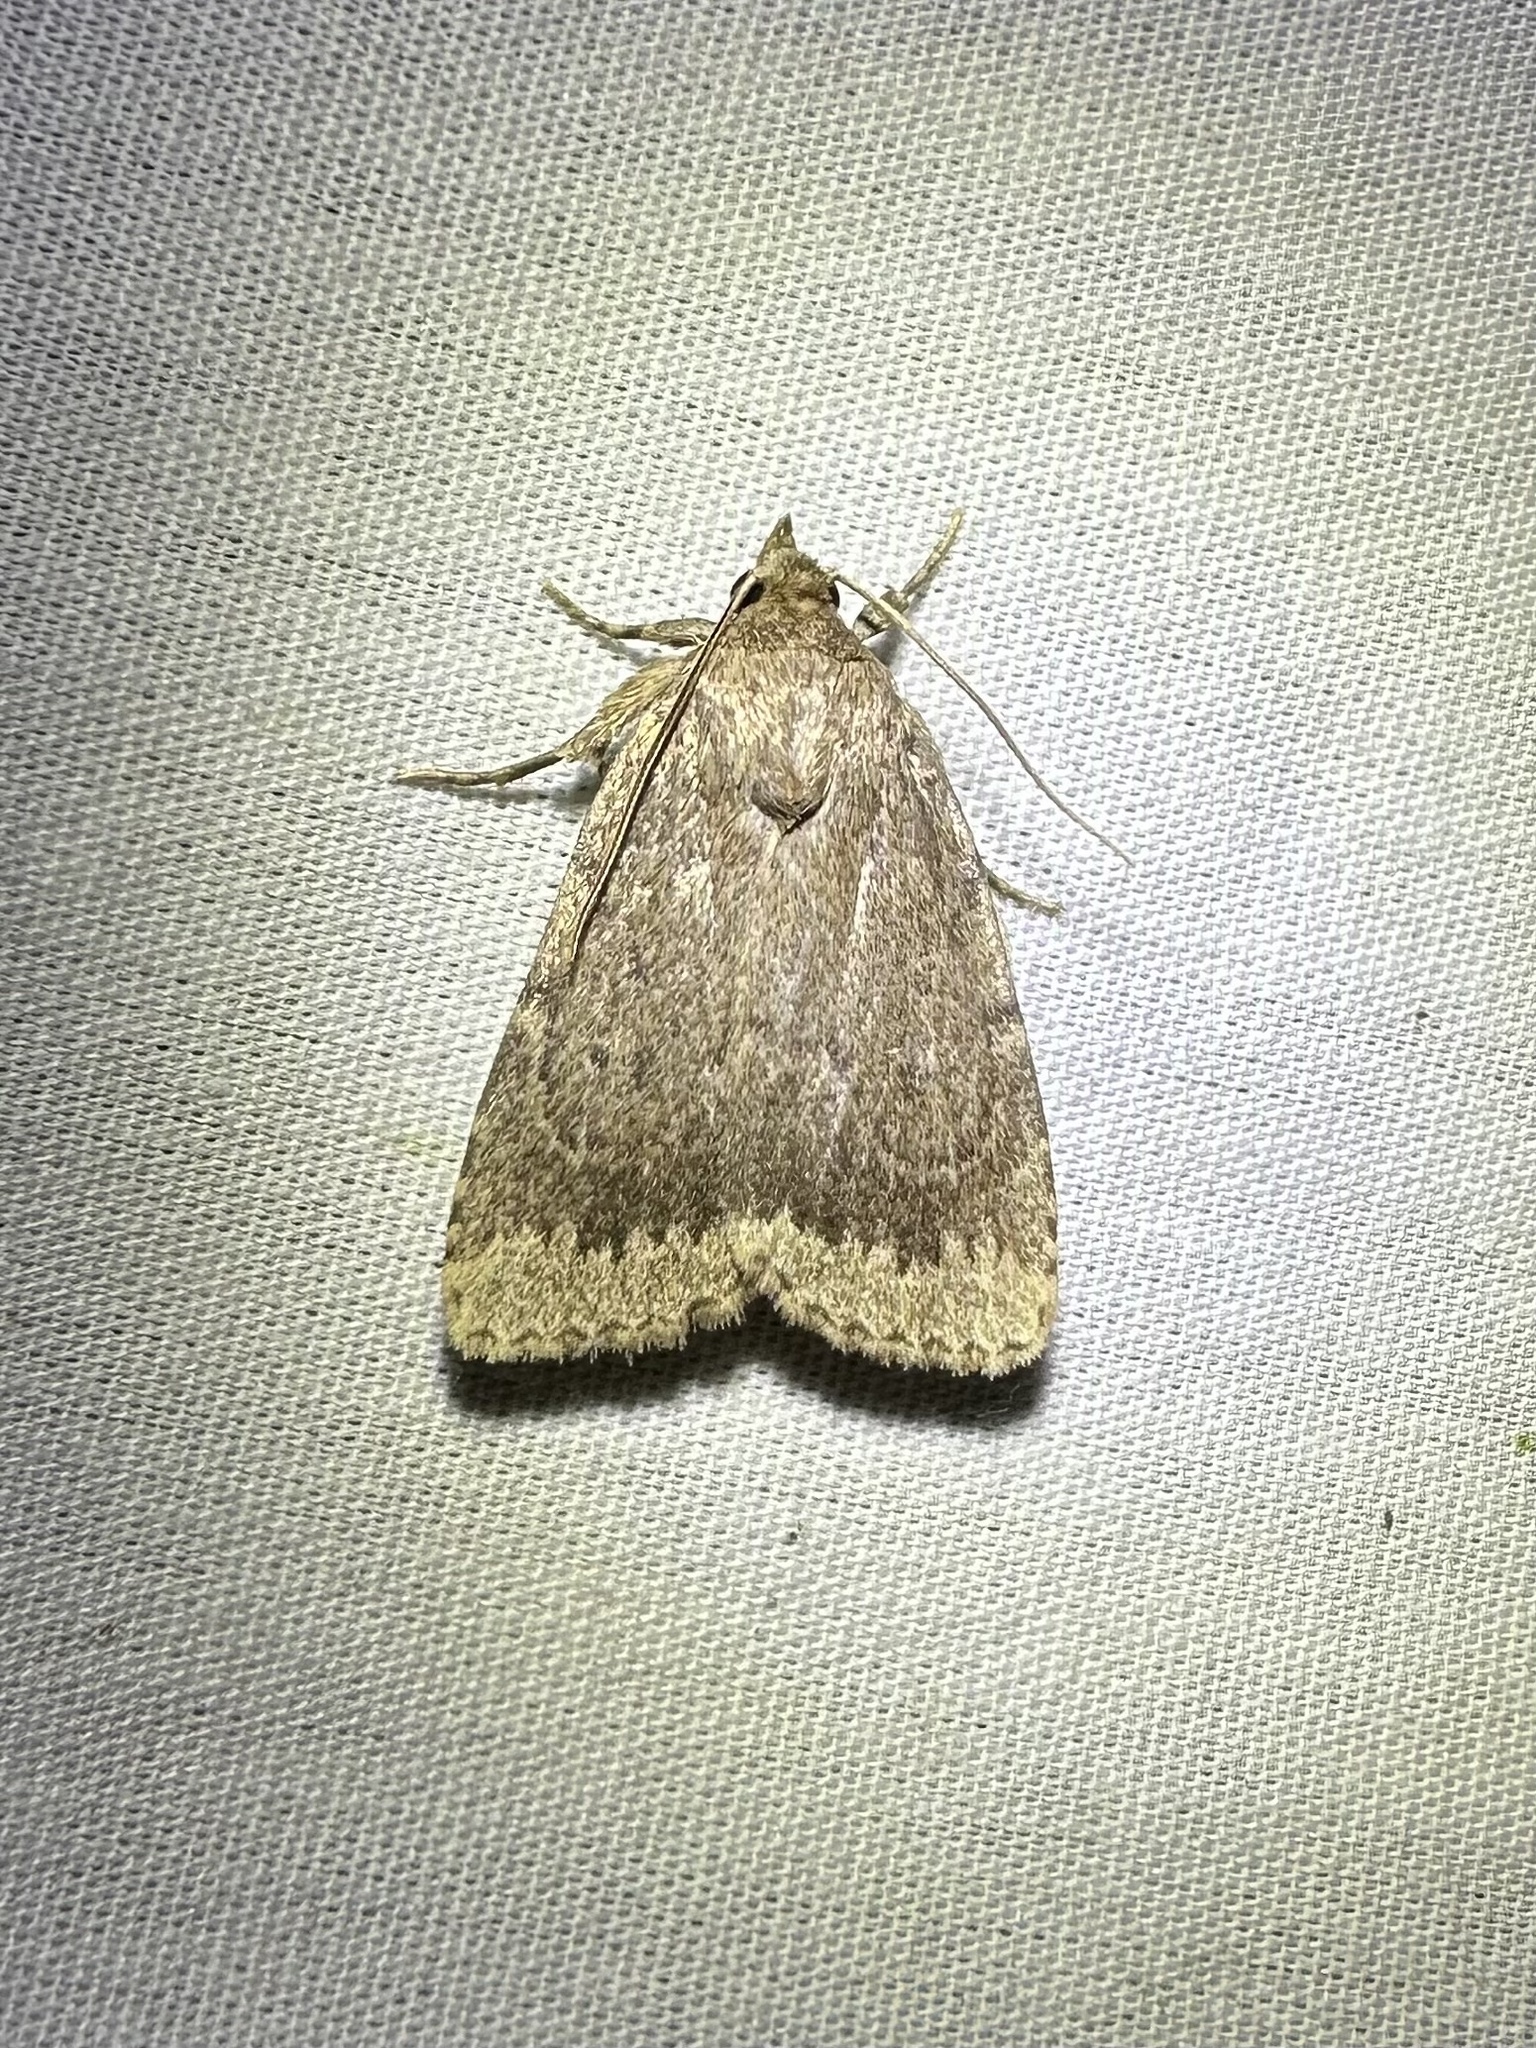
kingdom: Animalia
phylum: Arthropoda
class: Insecta
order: Lepidoptera
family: Noctuidae
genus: Amphipyra
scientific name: Amphipyra glabella
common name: Smooth amphipyra moth
